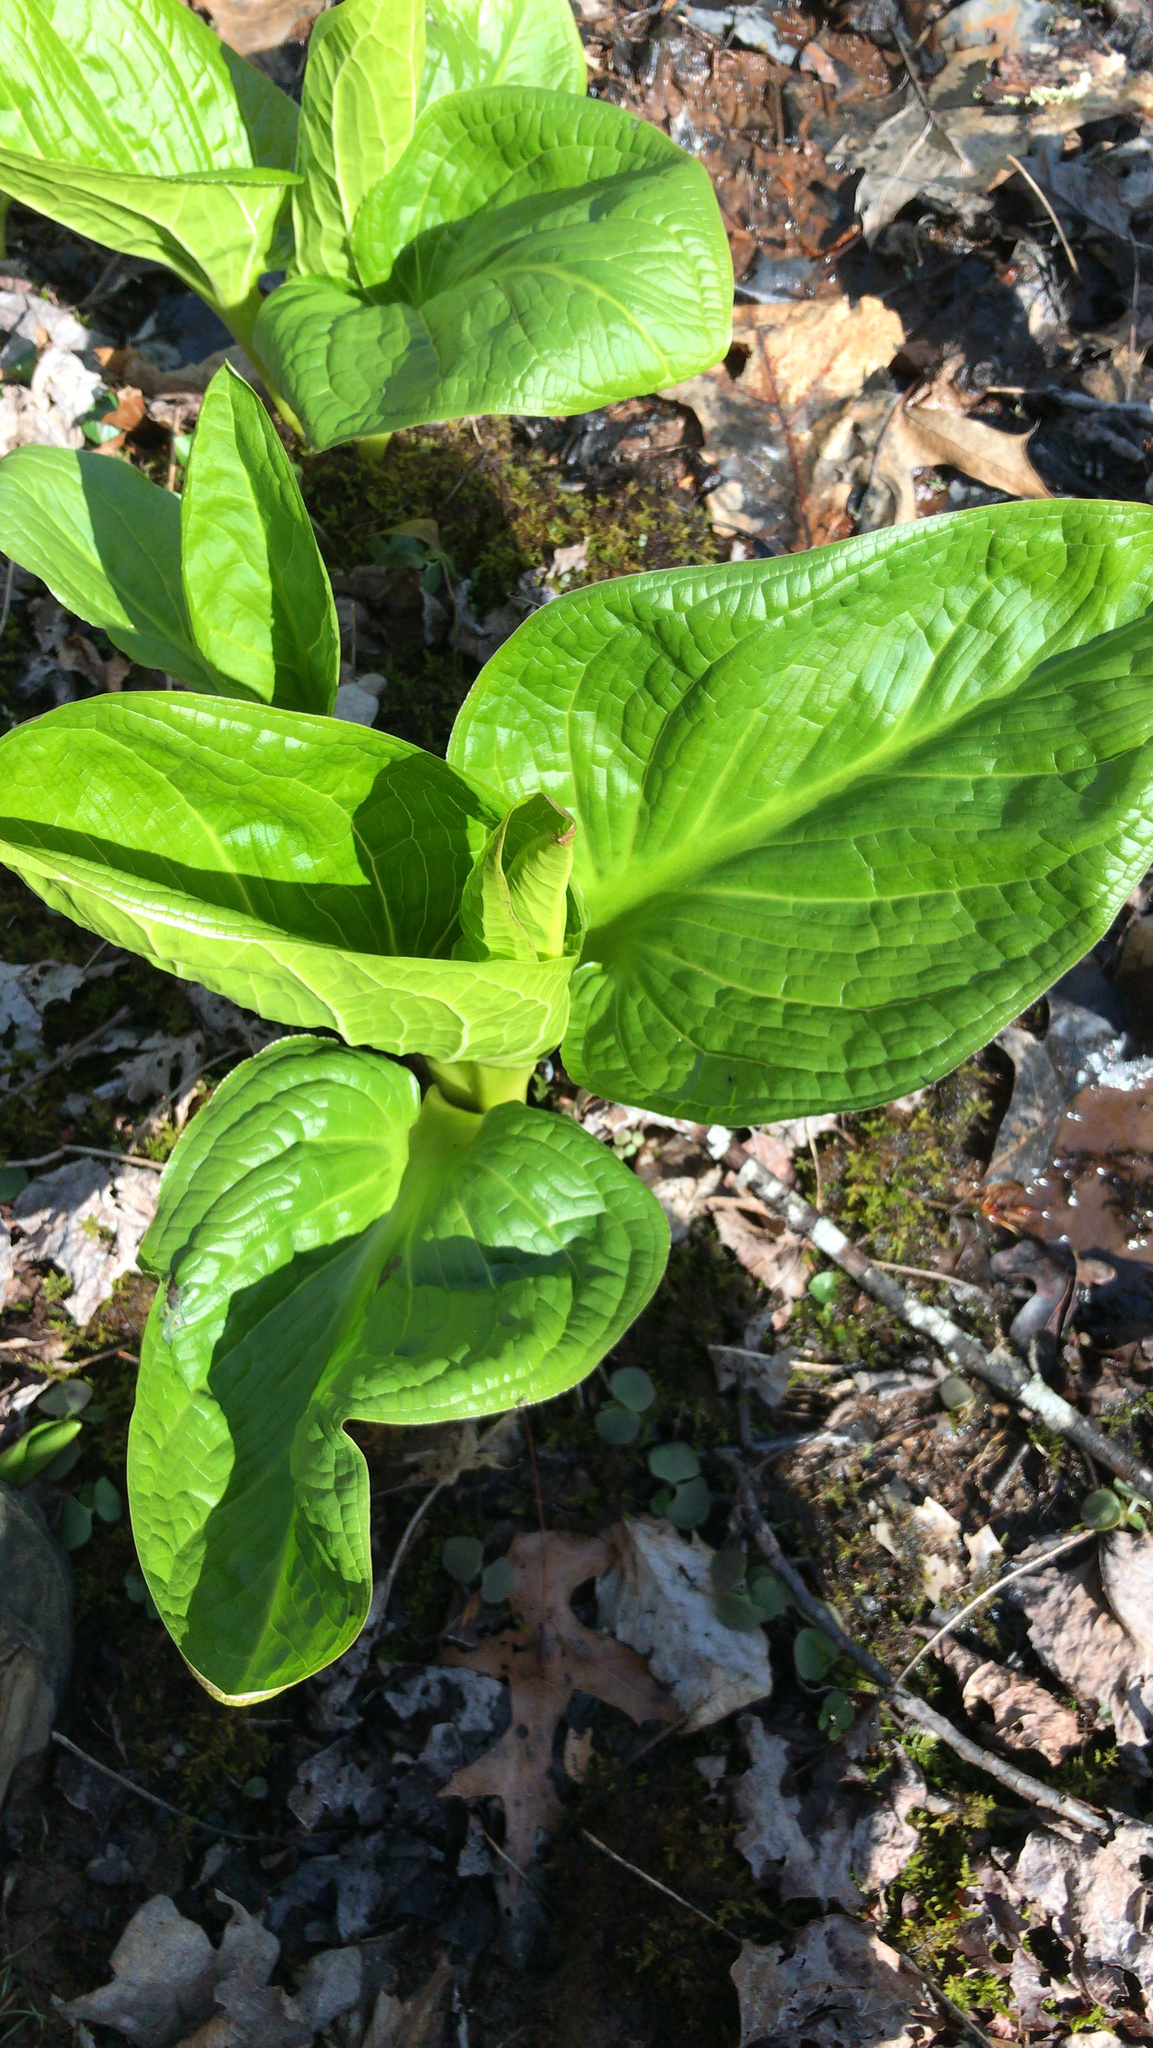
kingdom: Plantae
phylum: Tracheophyta
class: Liliopsida
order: Alismatales
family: Araceae
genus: Symplocarpus
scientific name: Symplocarpus foetidus
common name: Eastern skunk cabbage
